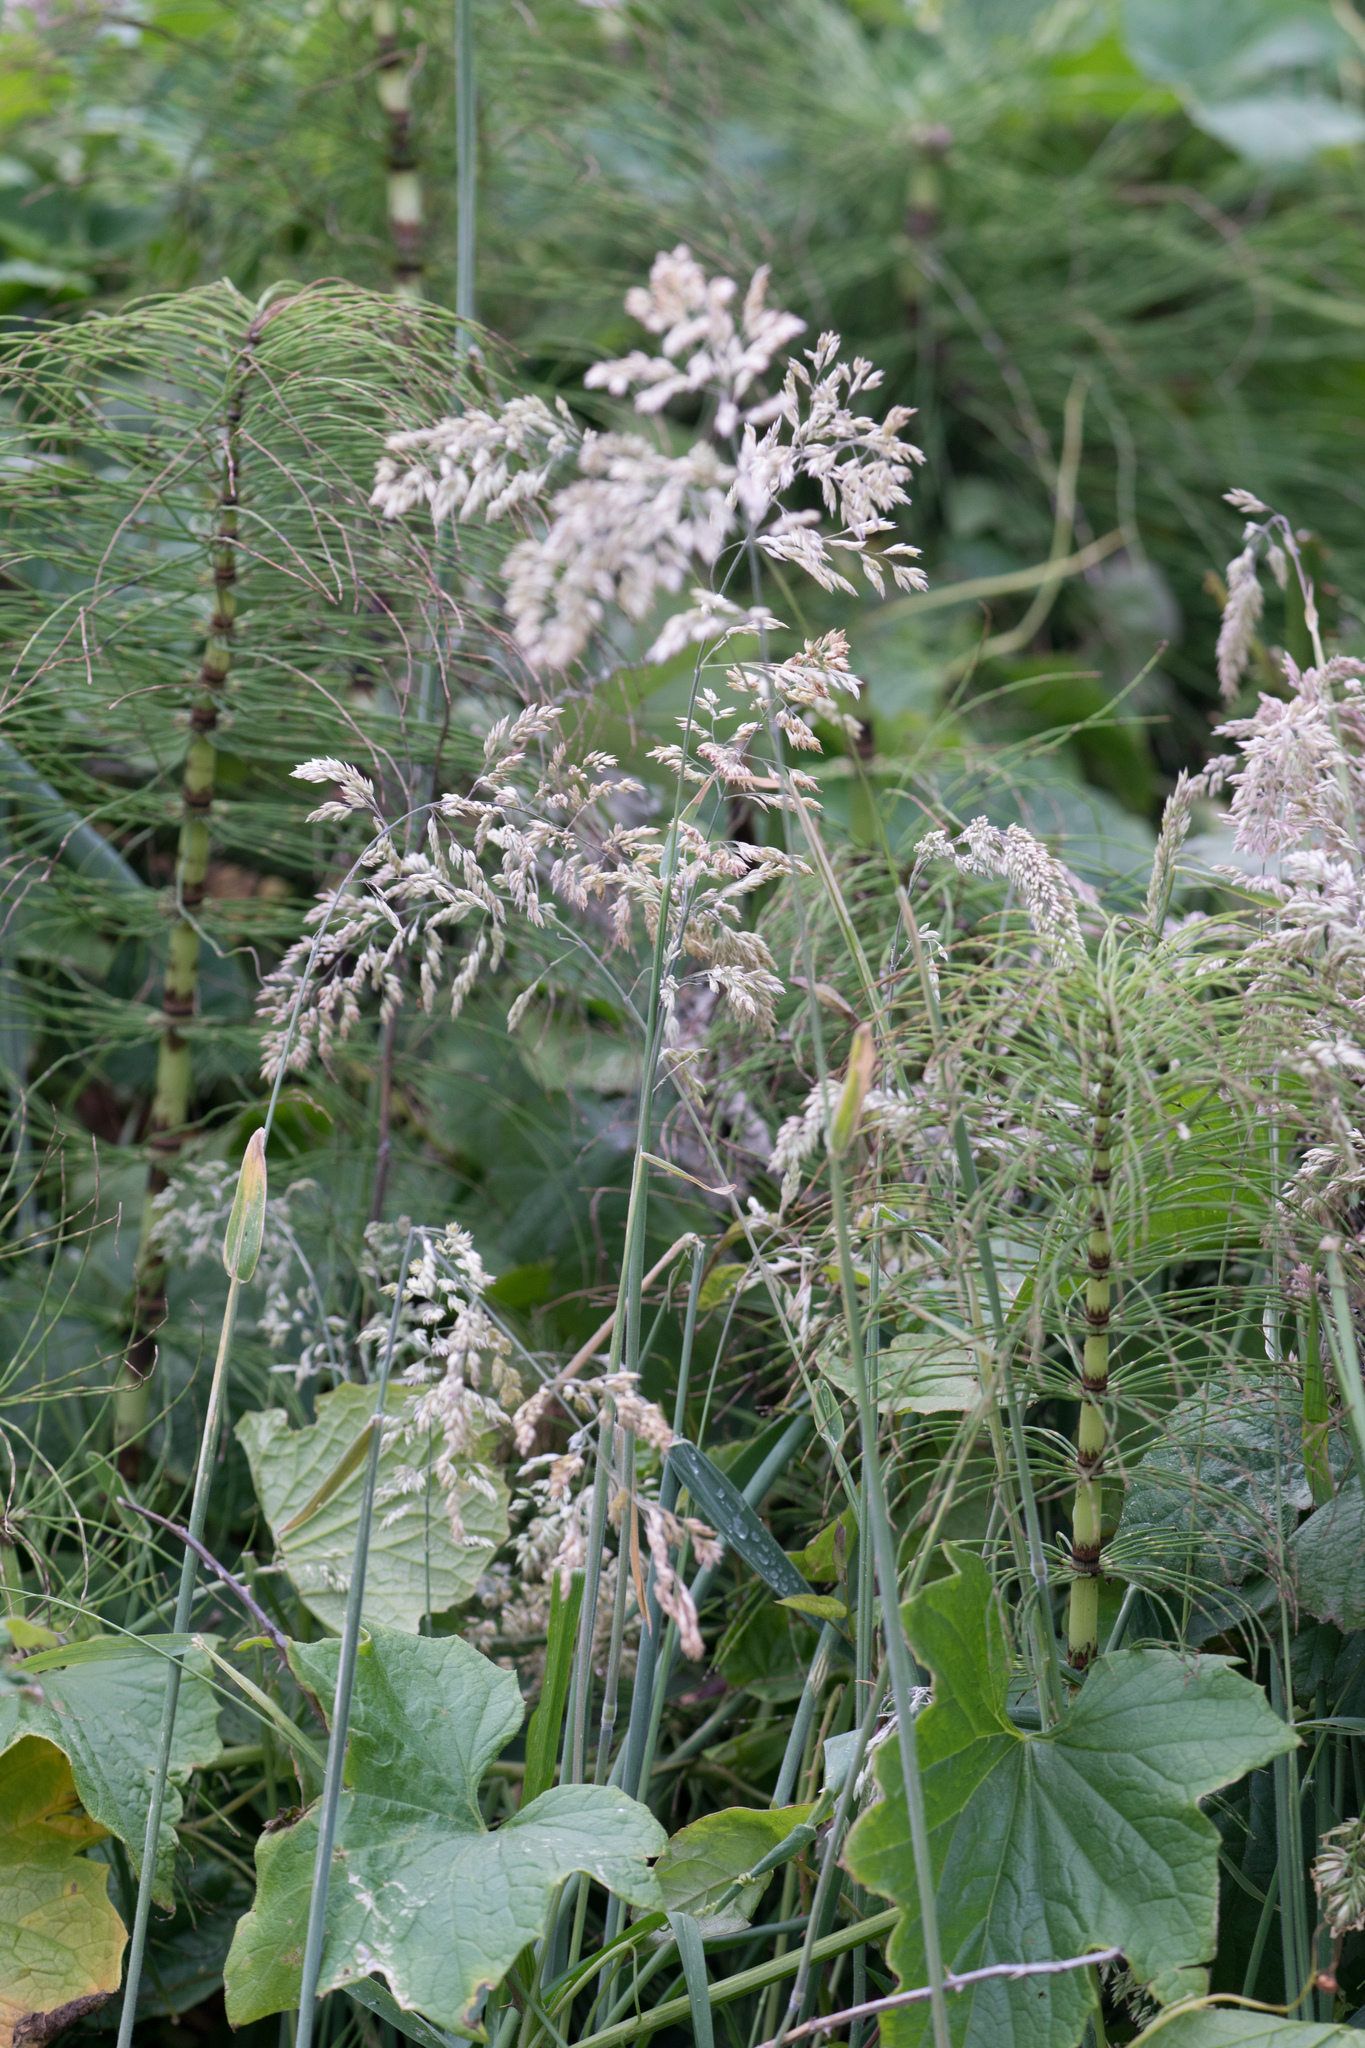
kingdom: Plantae
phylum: Tracheophyta
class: Liliopsida
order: Poales
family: Poaceae
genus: Holcus
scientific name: Holcus lanatus
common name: Yorkshire-fog
